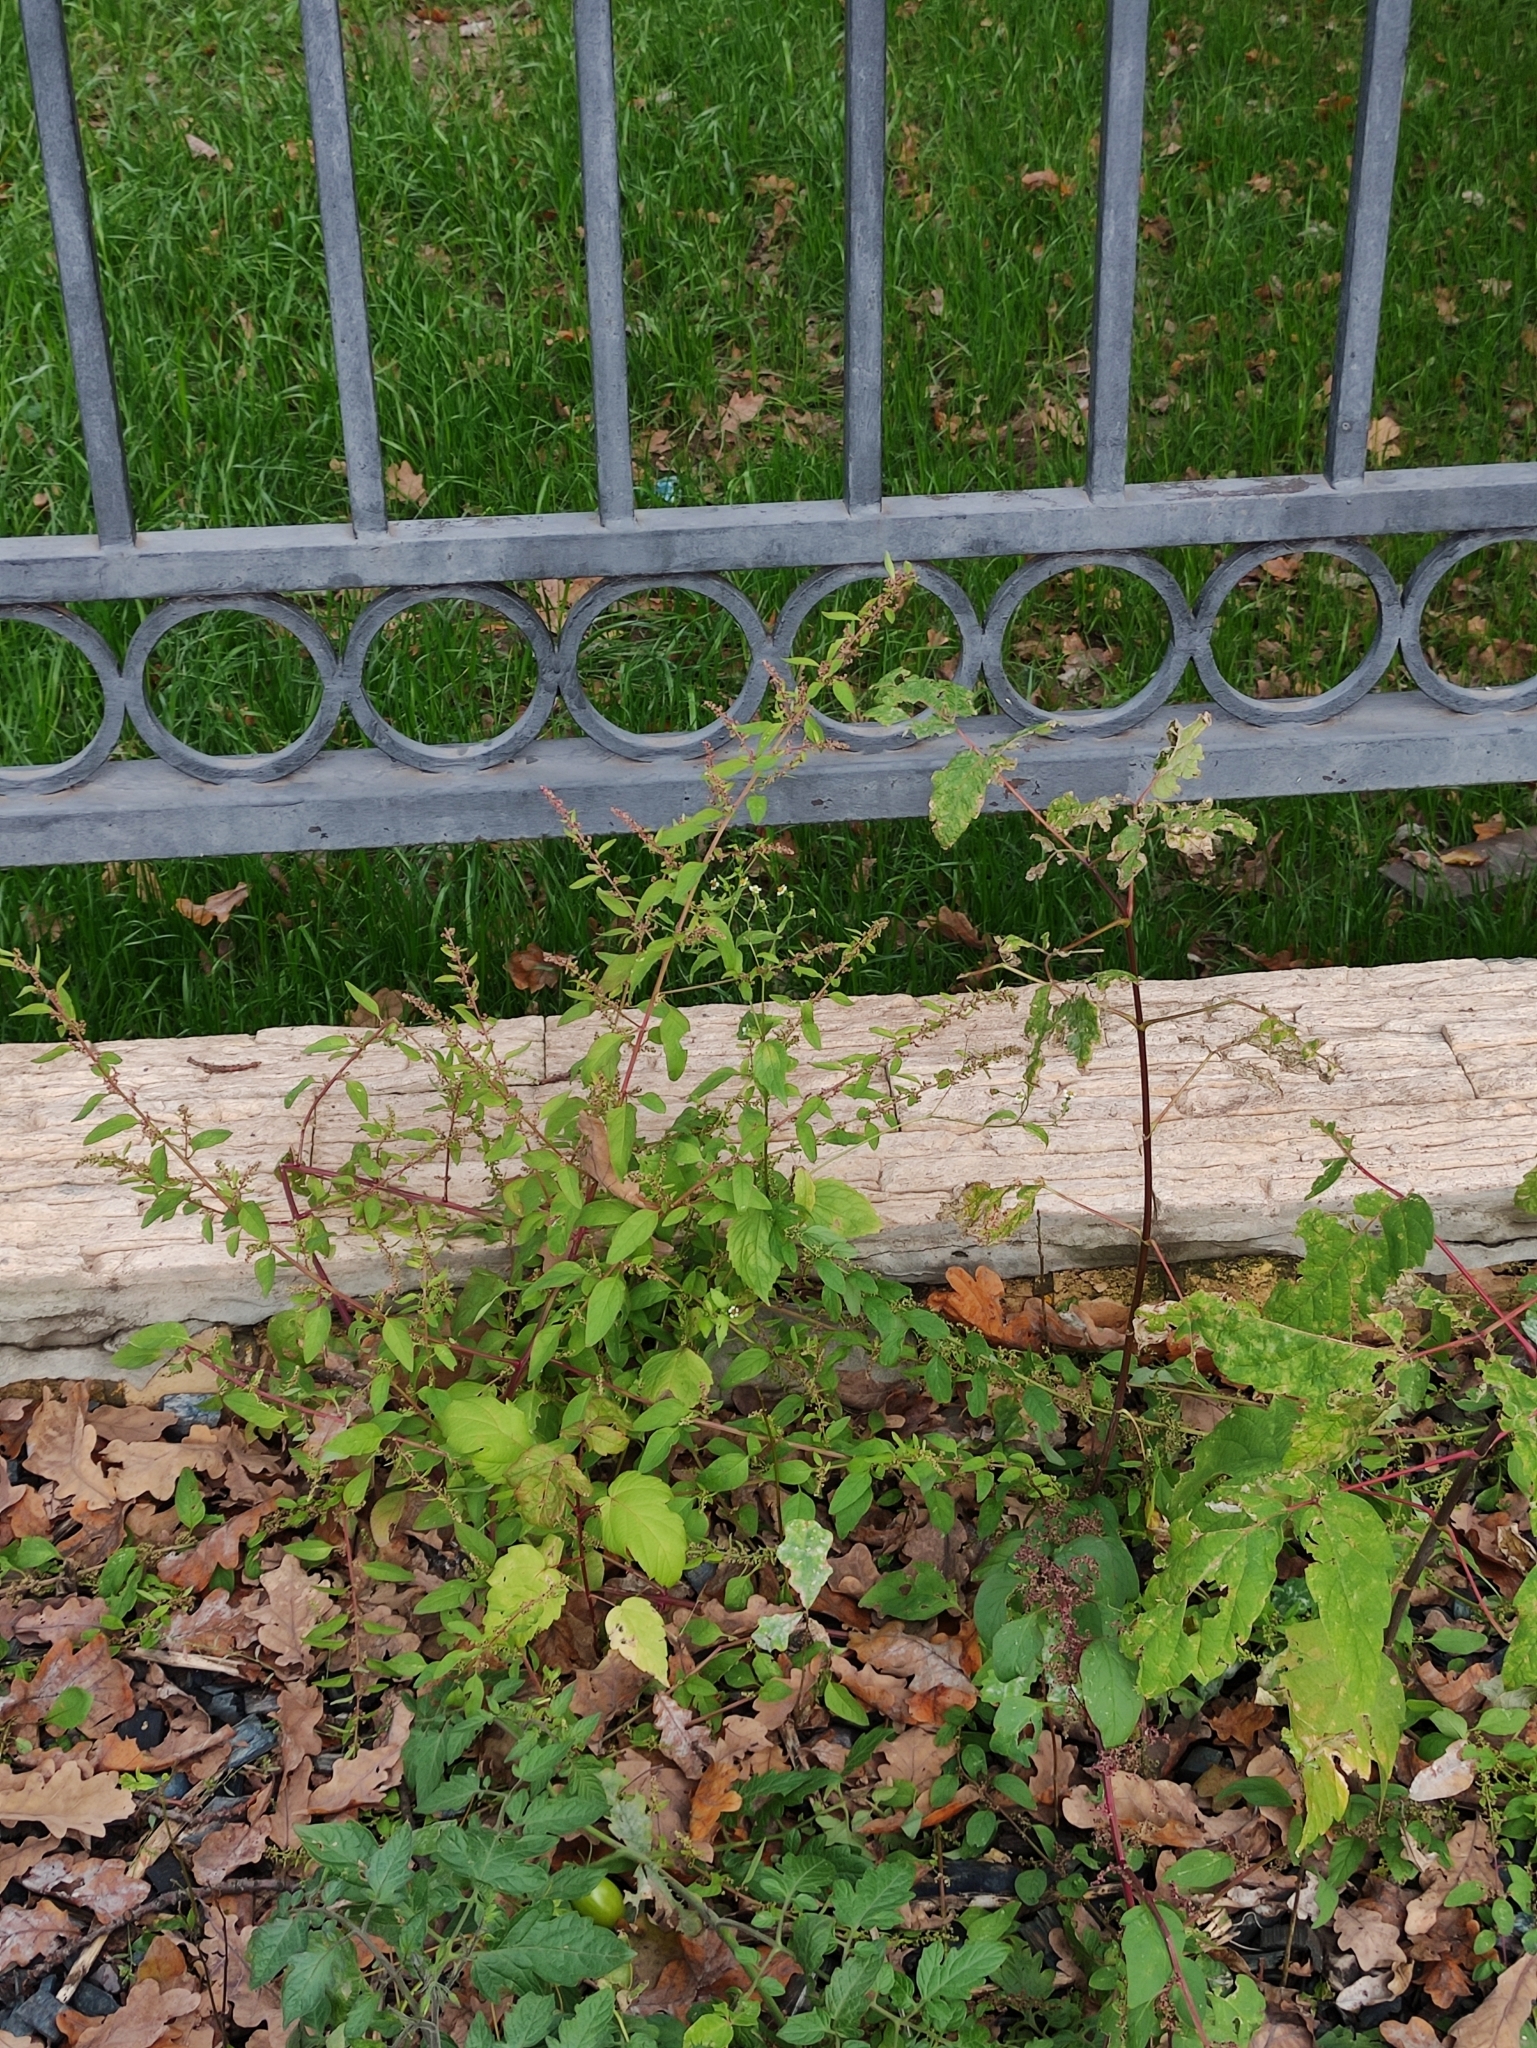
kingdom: Plantae
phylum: Tracheophyta
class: Magnoliopsida
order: Caryophyllales
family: Amaranthaceae
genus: Lipandra
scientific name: Lipandra polysperma
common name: Many-seed goosefoot
